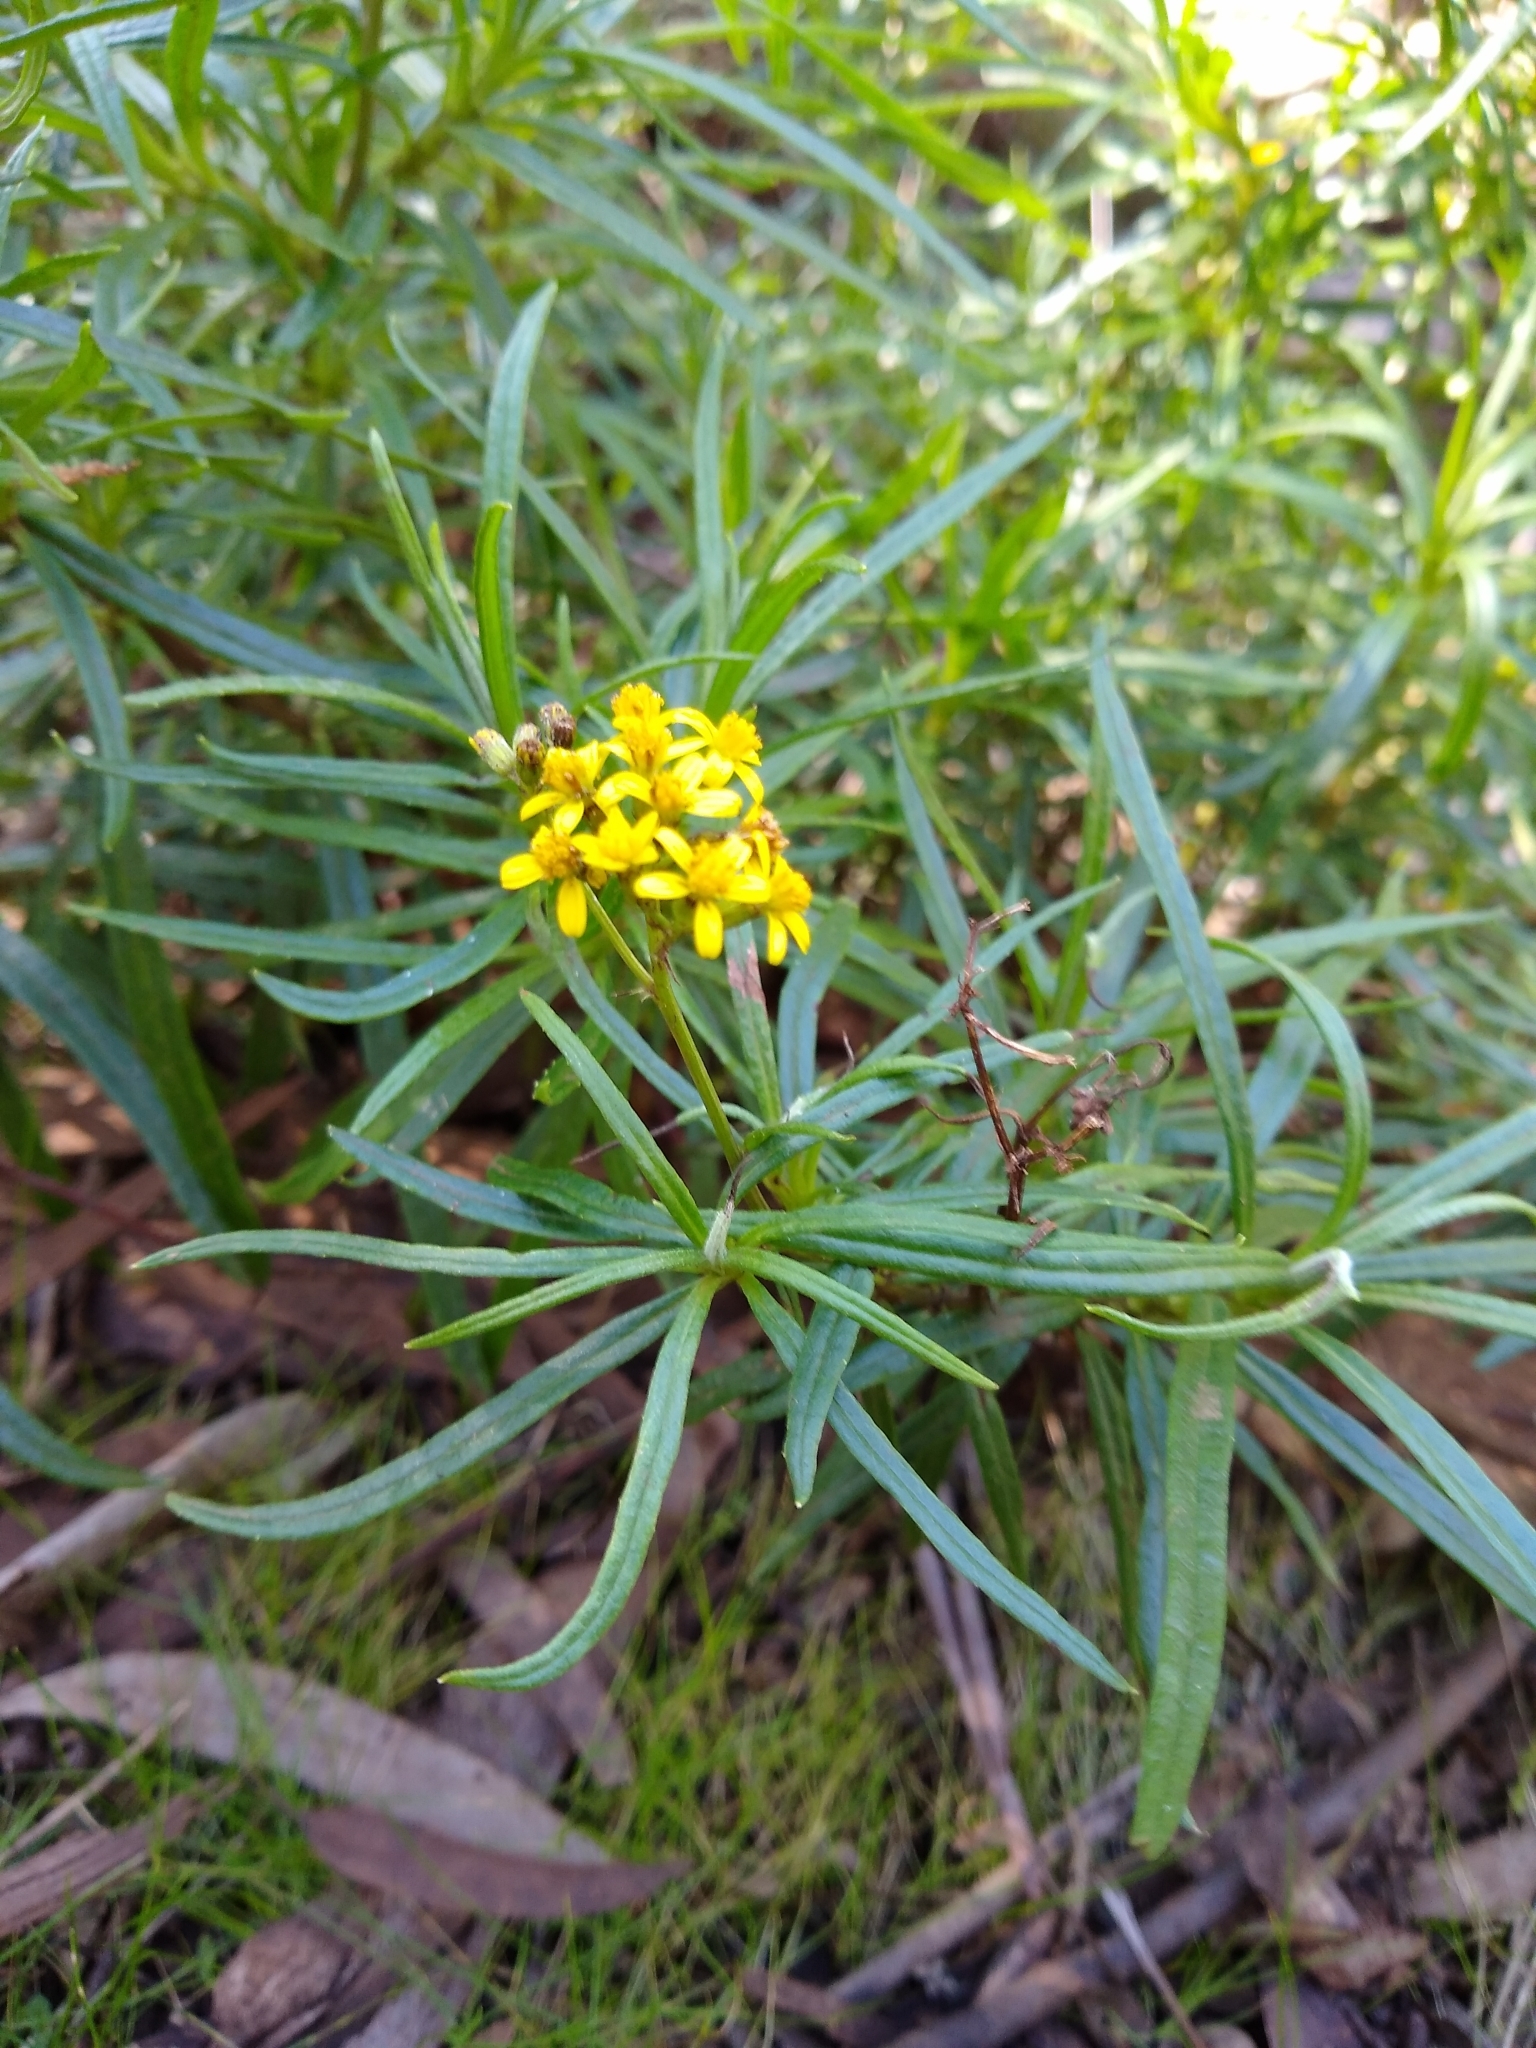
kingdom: Plantae
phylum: Tracheophyta
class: Magnoliopsida
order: Asterales
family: Asteraceae
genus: Senecio
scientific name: Senecio linearifolius
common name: Fireweed groundsel
